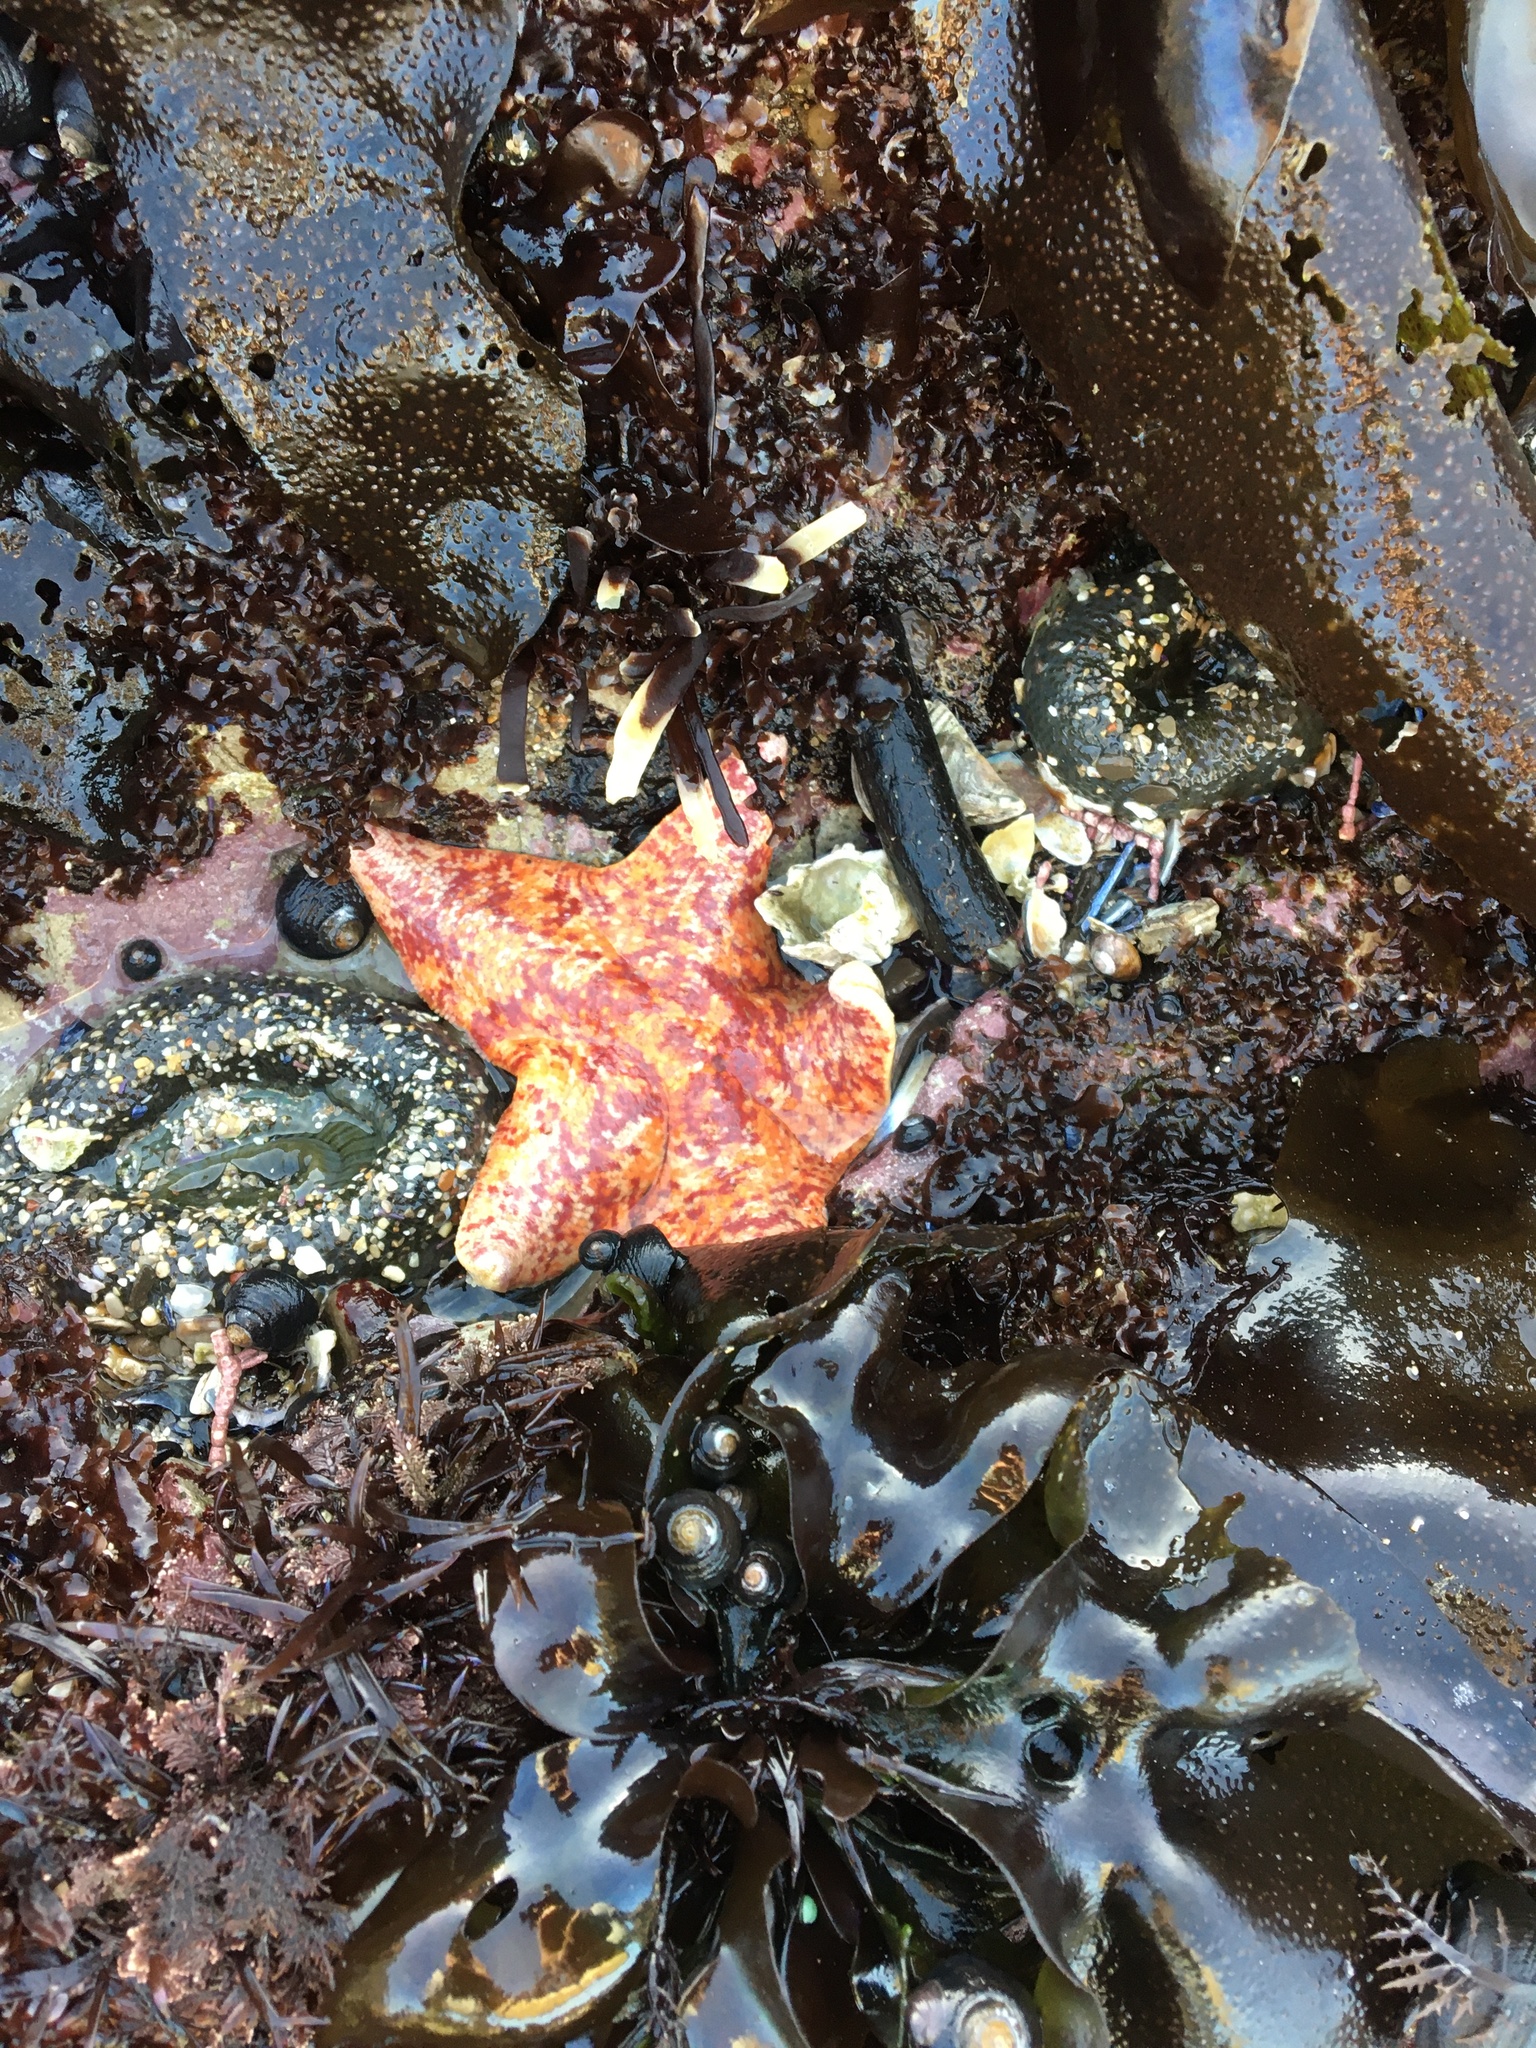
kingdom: Animalia
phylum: Echinodermata
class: Asteroidea
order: Valvatida
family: Asterinidae
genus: Patiria
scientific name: Patiria miniata
